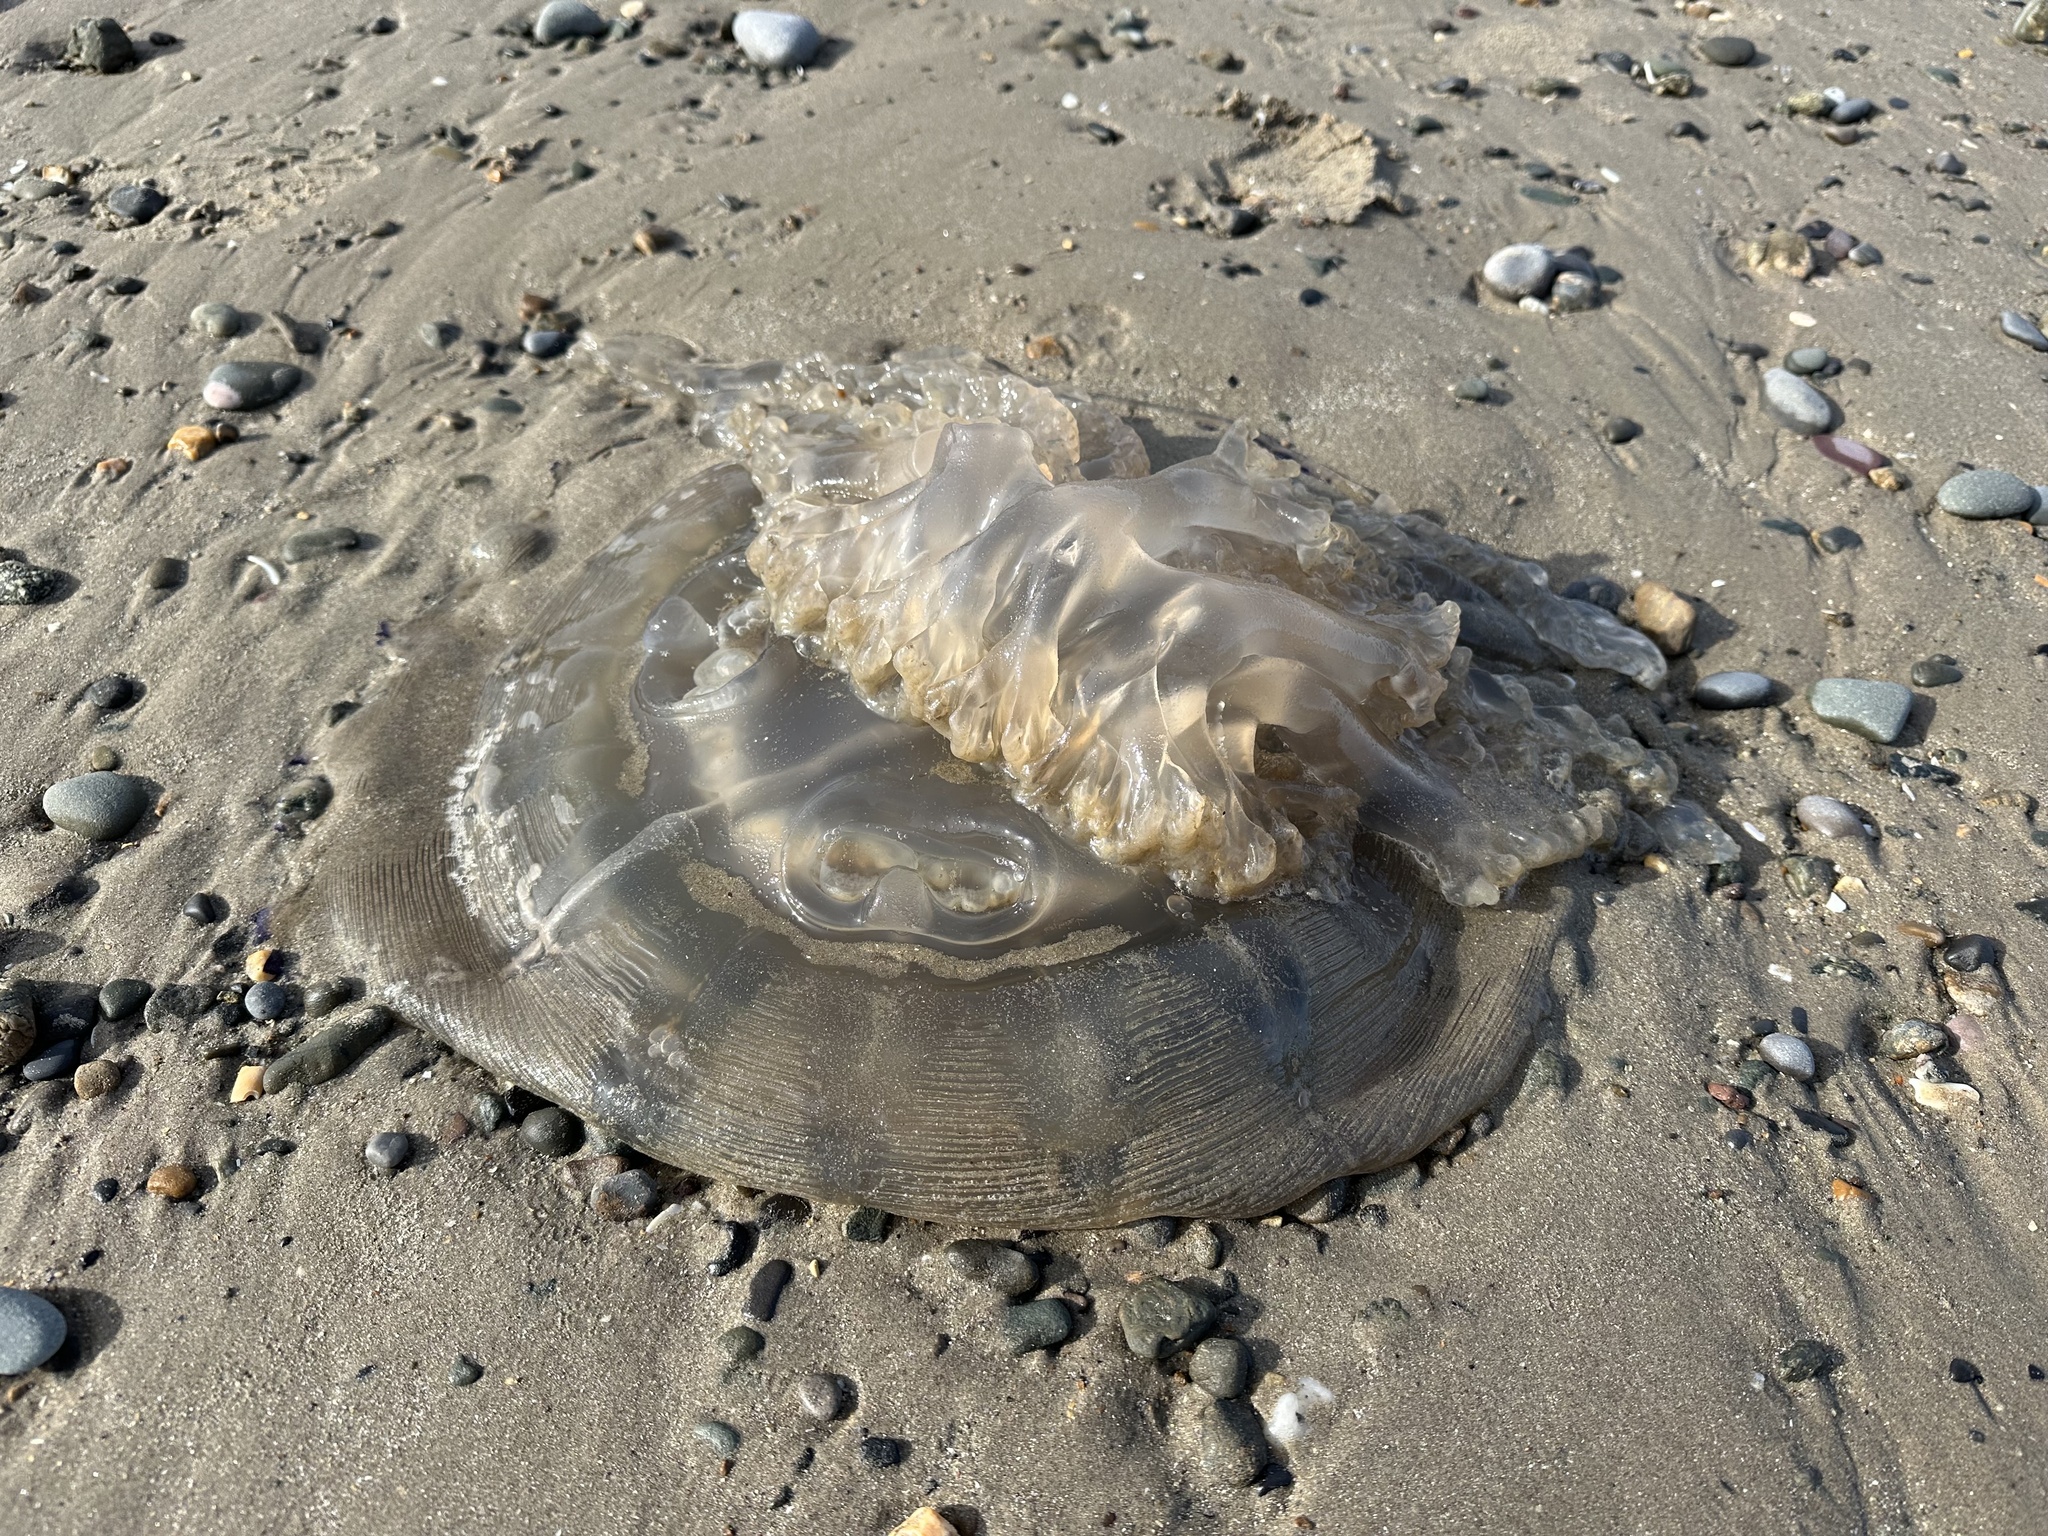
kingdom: Animalia
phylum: Cnidaria
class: Scyphozoa
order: Rhizostomeae
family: Rhizostomatidae
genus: Rhizostoma
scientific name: Rhizostoma octopus
